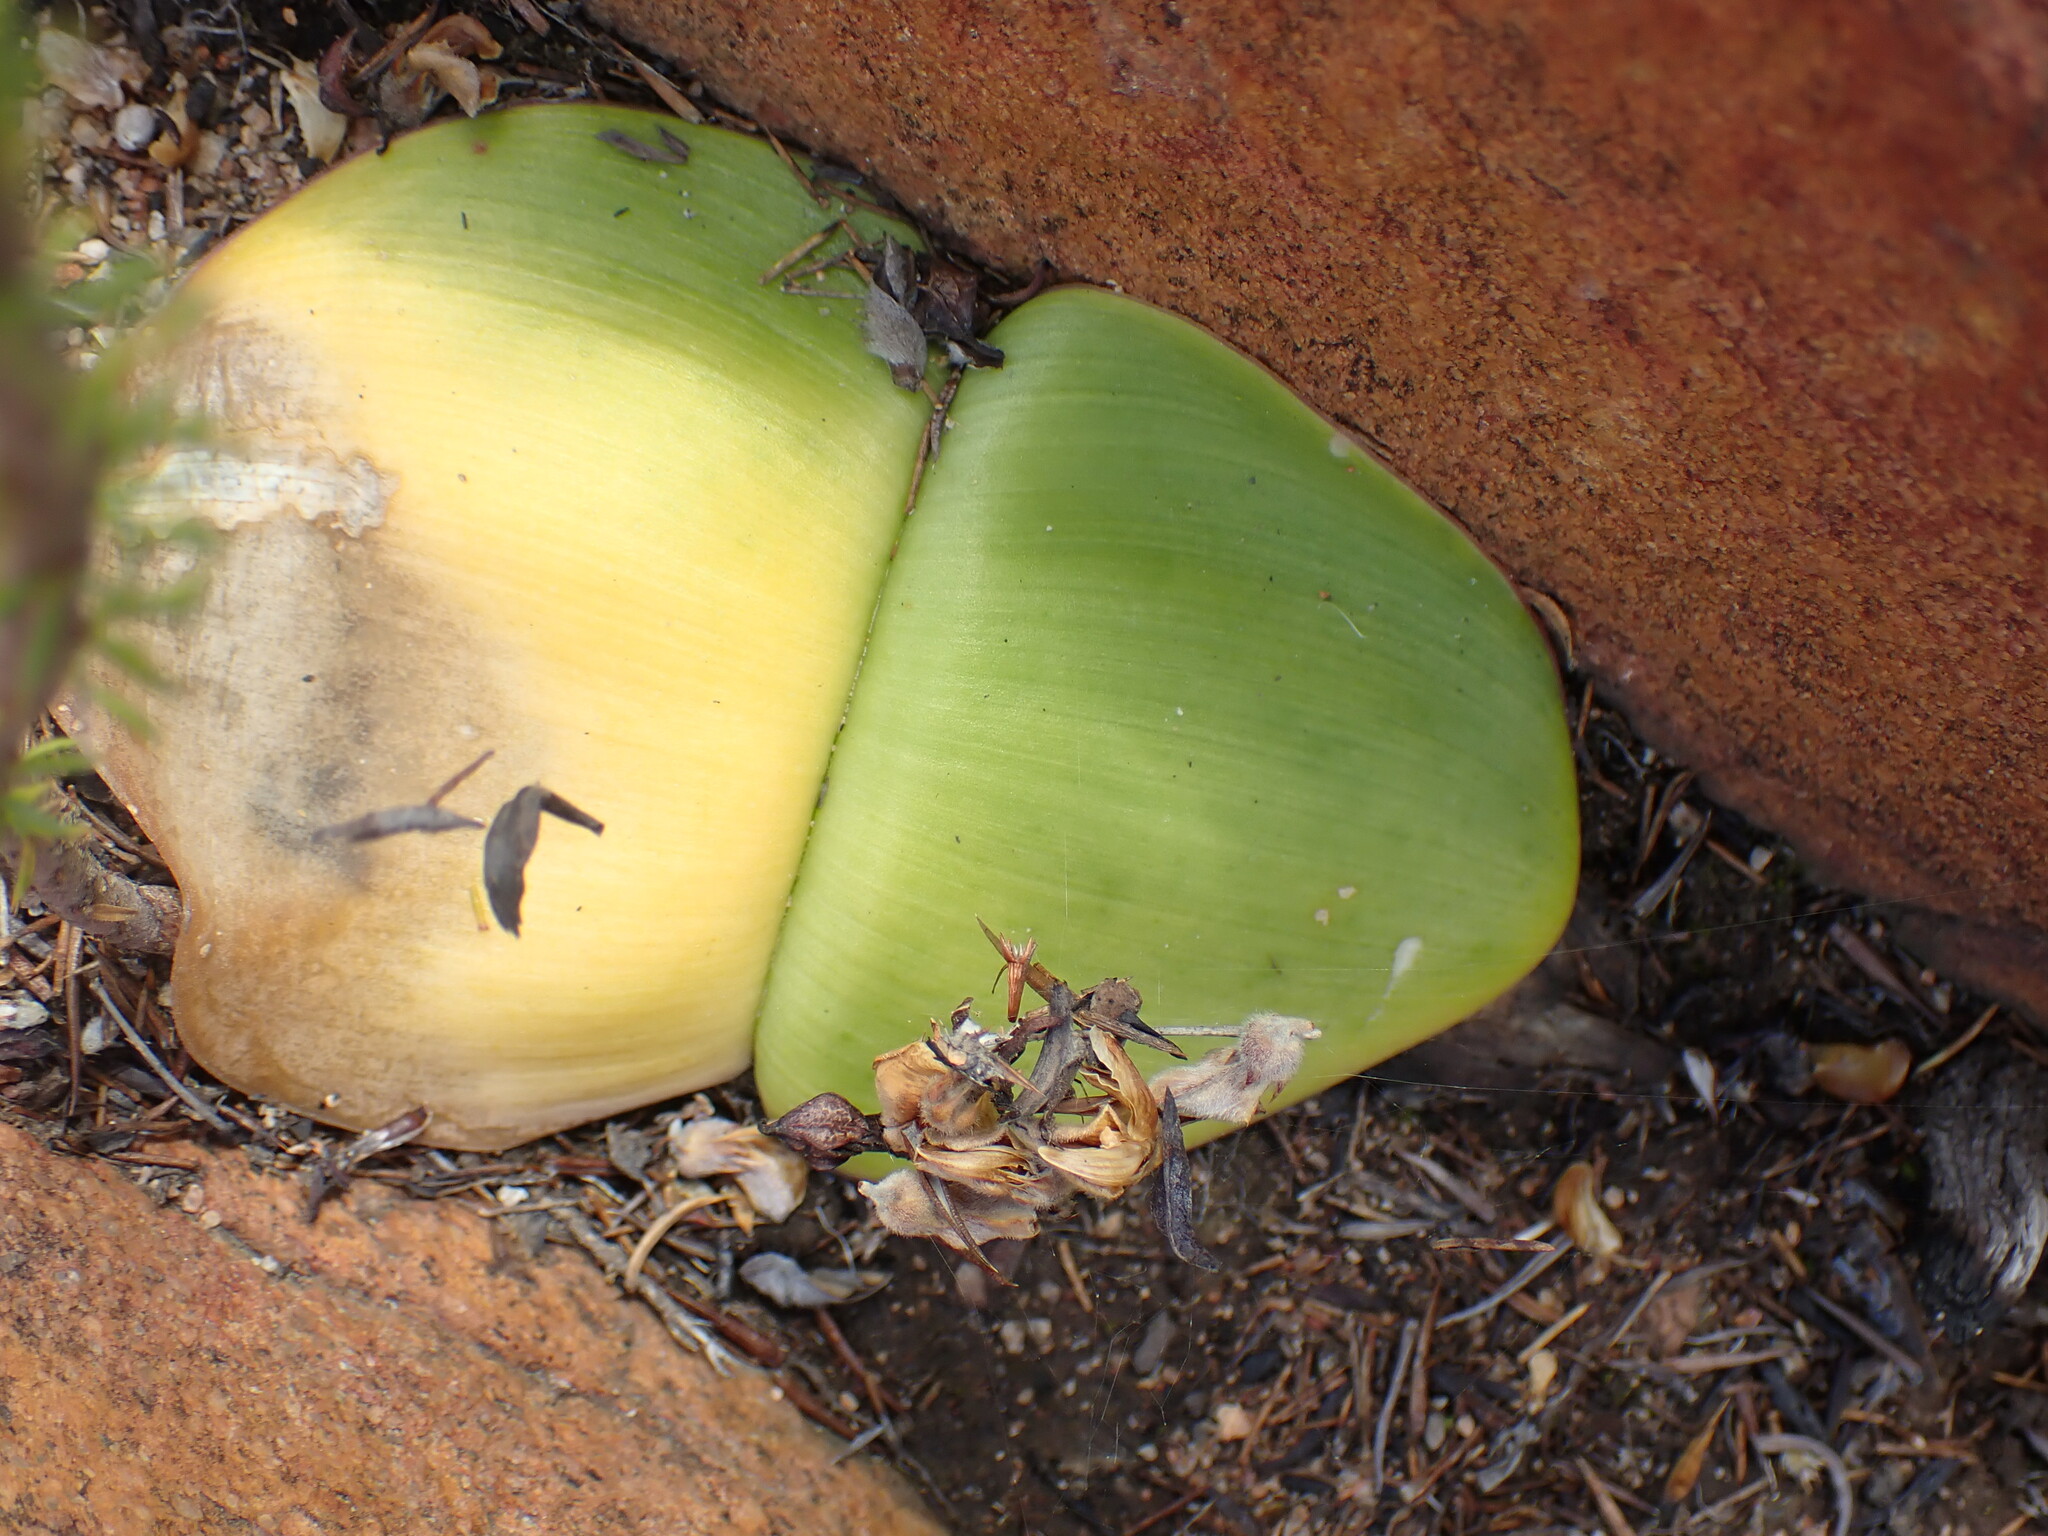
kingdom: Plantae
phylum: Tracheophyta
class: Liliopsida
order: Asparagales
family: Amaryllidaceae
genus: Haemanthus
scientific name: Haemanthus sanguineus
